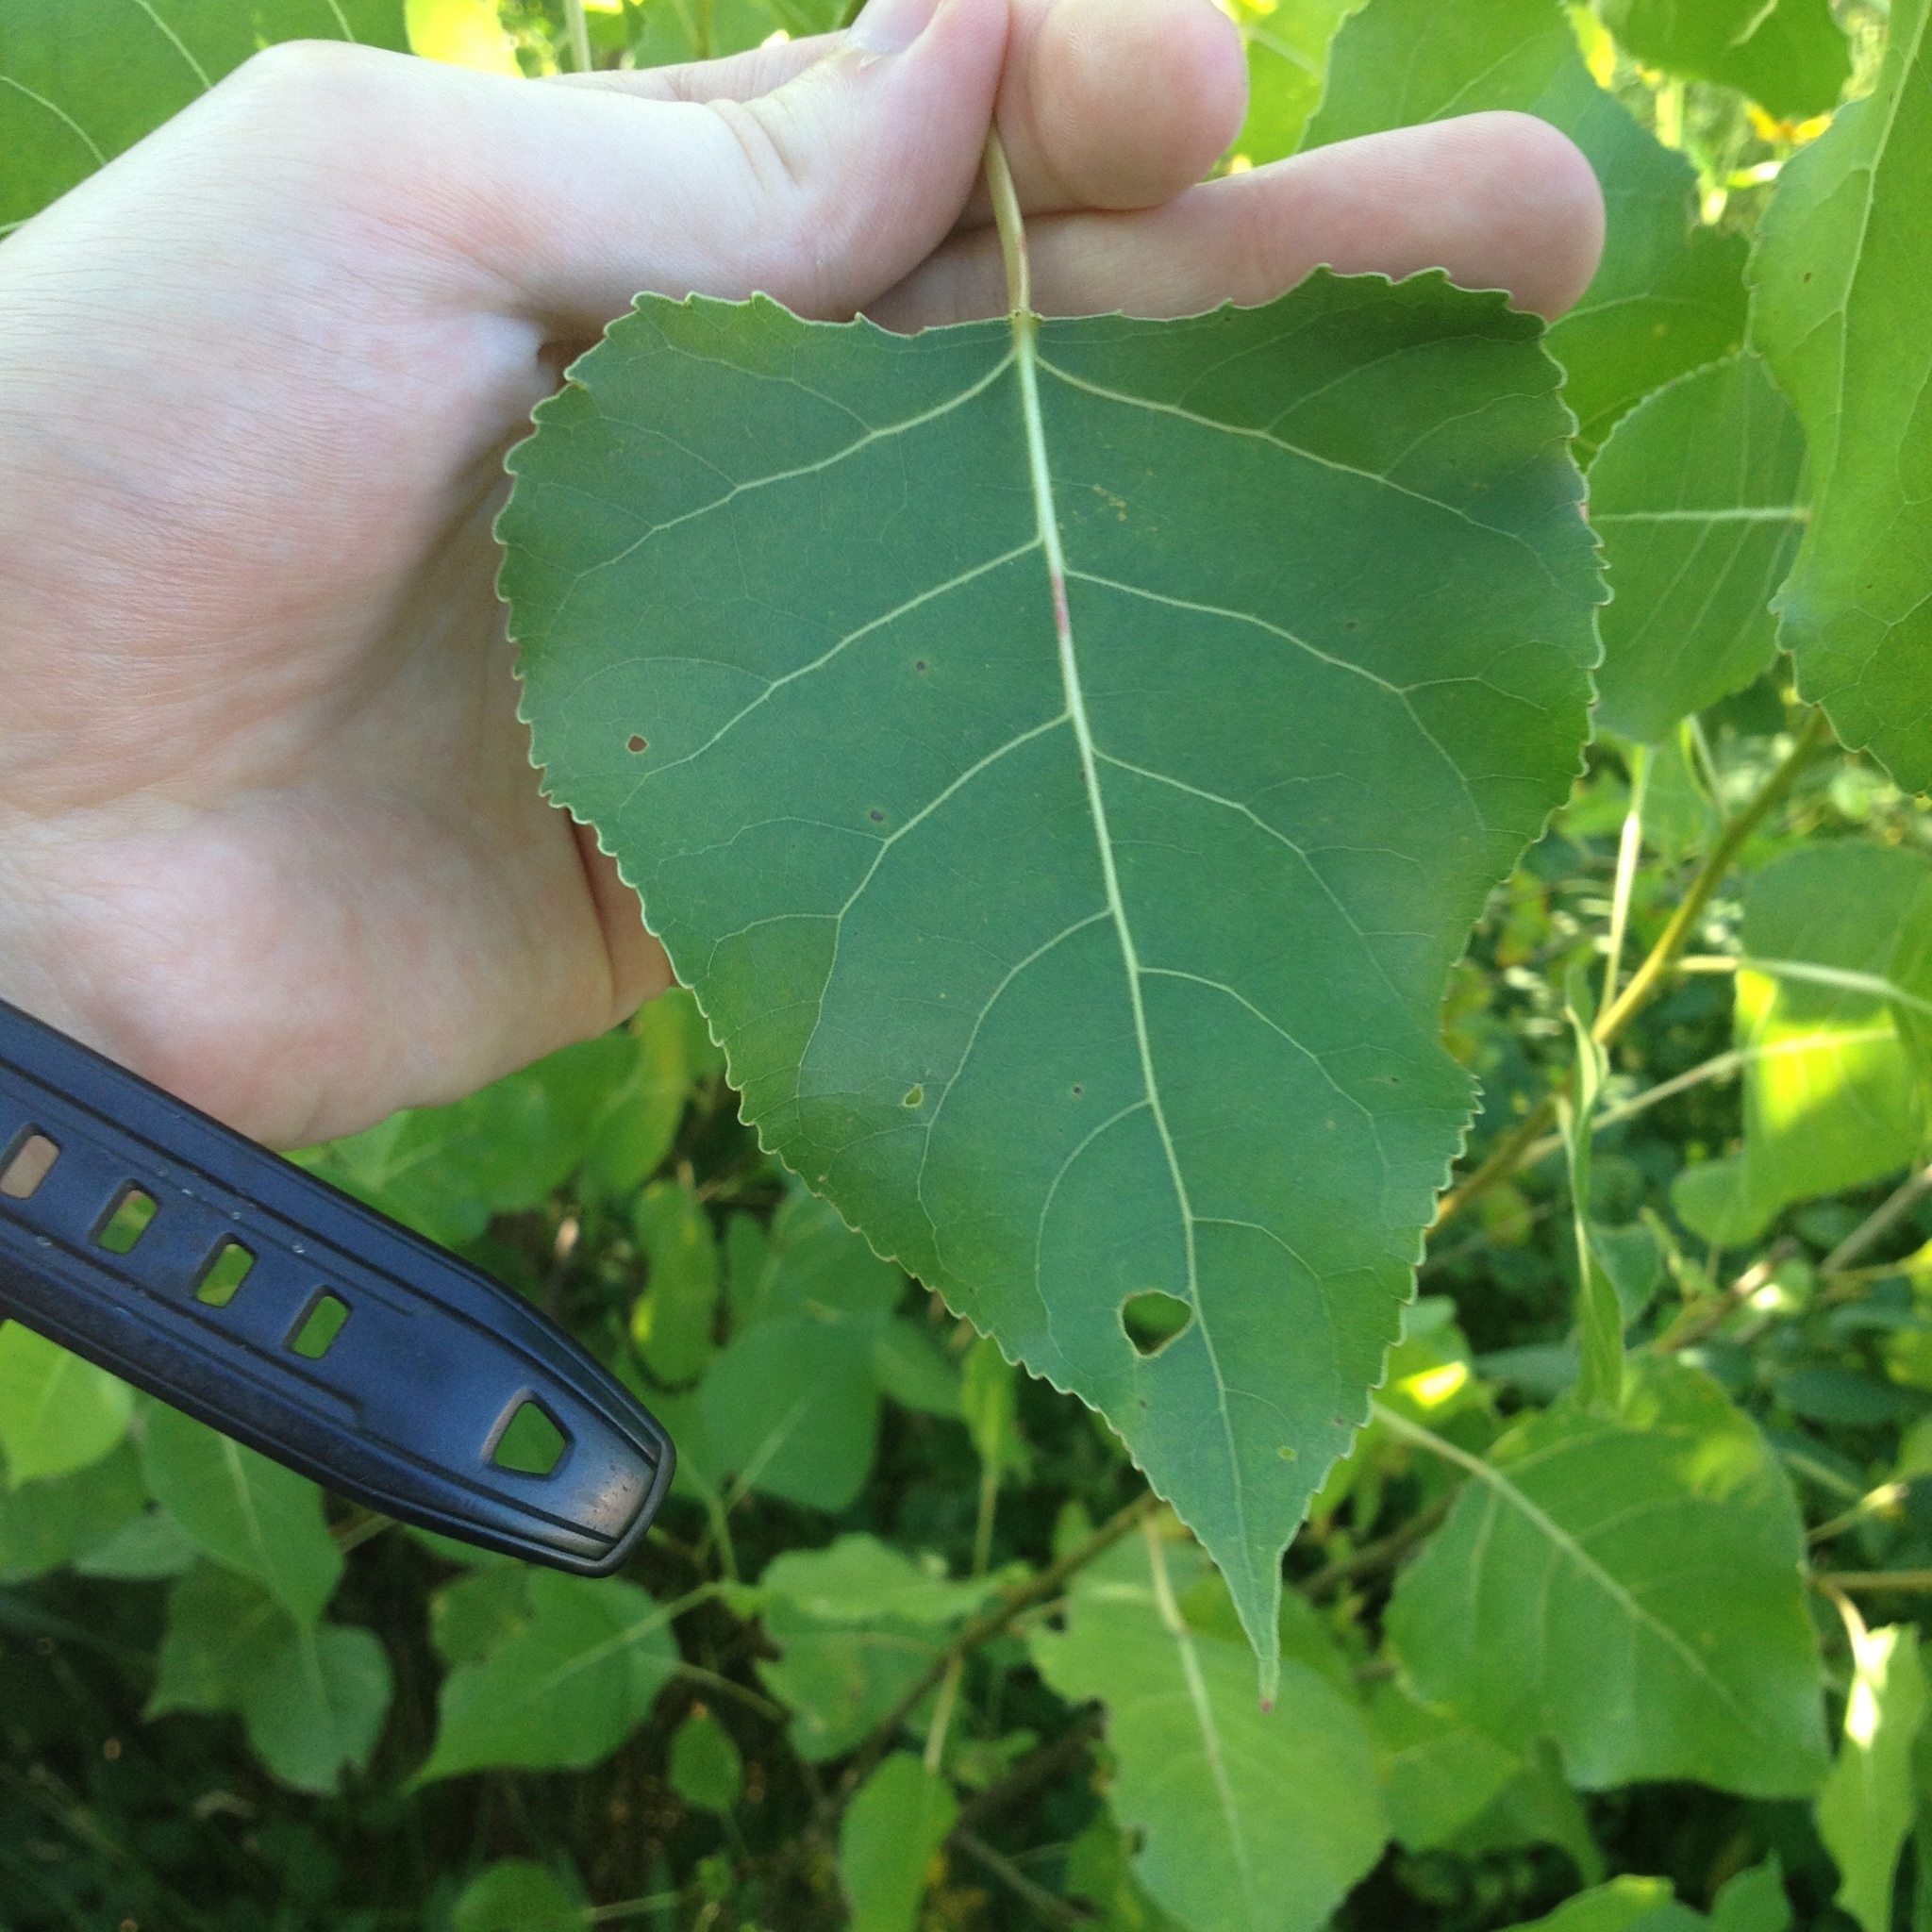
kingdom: Plantae
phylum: Tracheophyta
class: Magnoliopsida
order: Malpighiales
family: Salicaceae
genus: Populus
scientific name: Populus deltoides
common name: Eastern cottonwood
